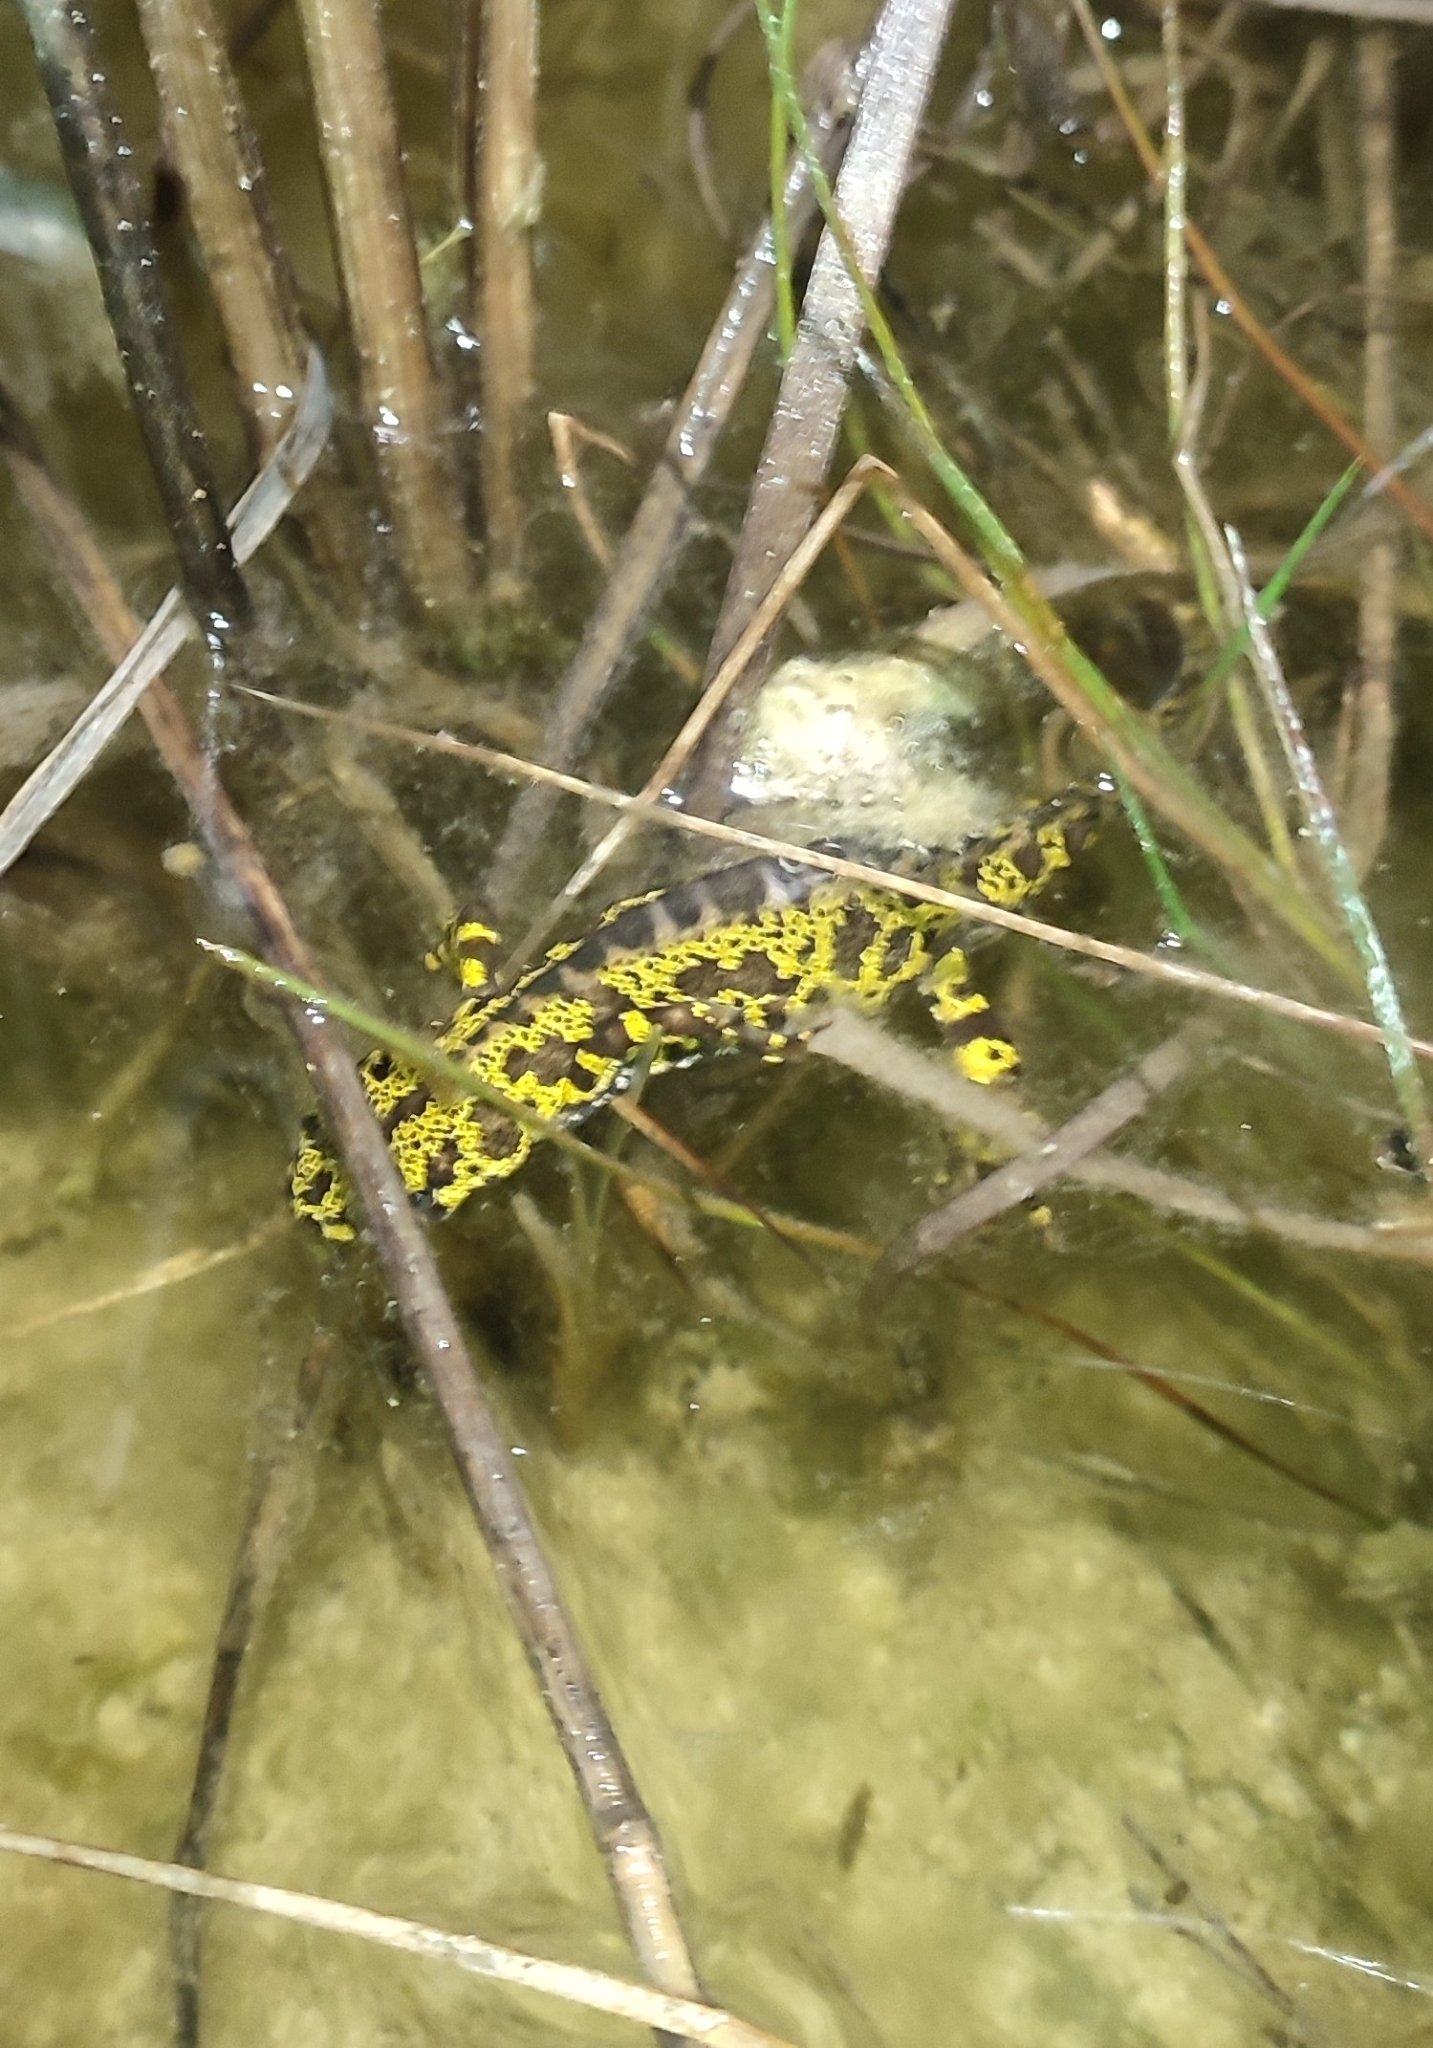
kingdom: Animalia
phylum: Chordata
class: Amphibia
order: Caudata
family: Salamandridae
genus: Triturus
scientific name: Triturus marmoratus
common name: Marbled newt
